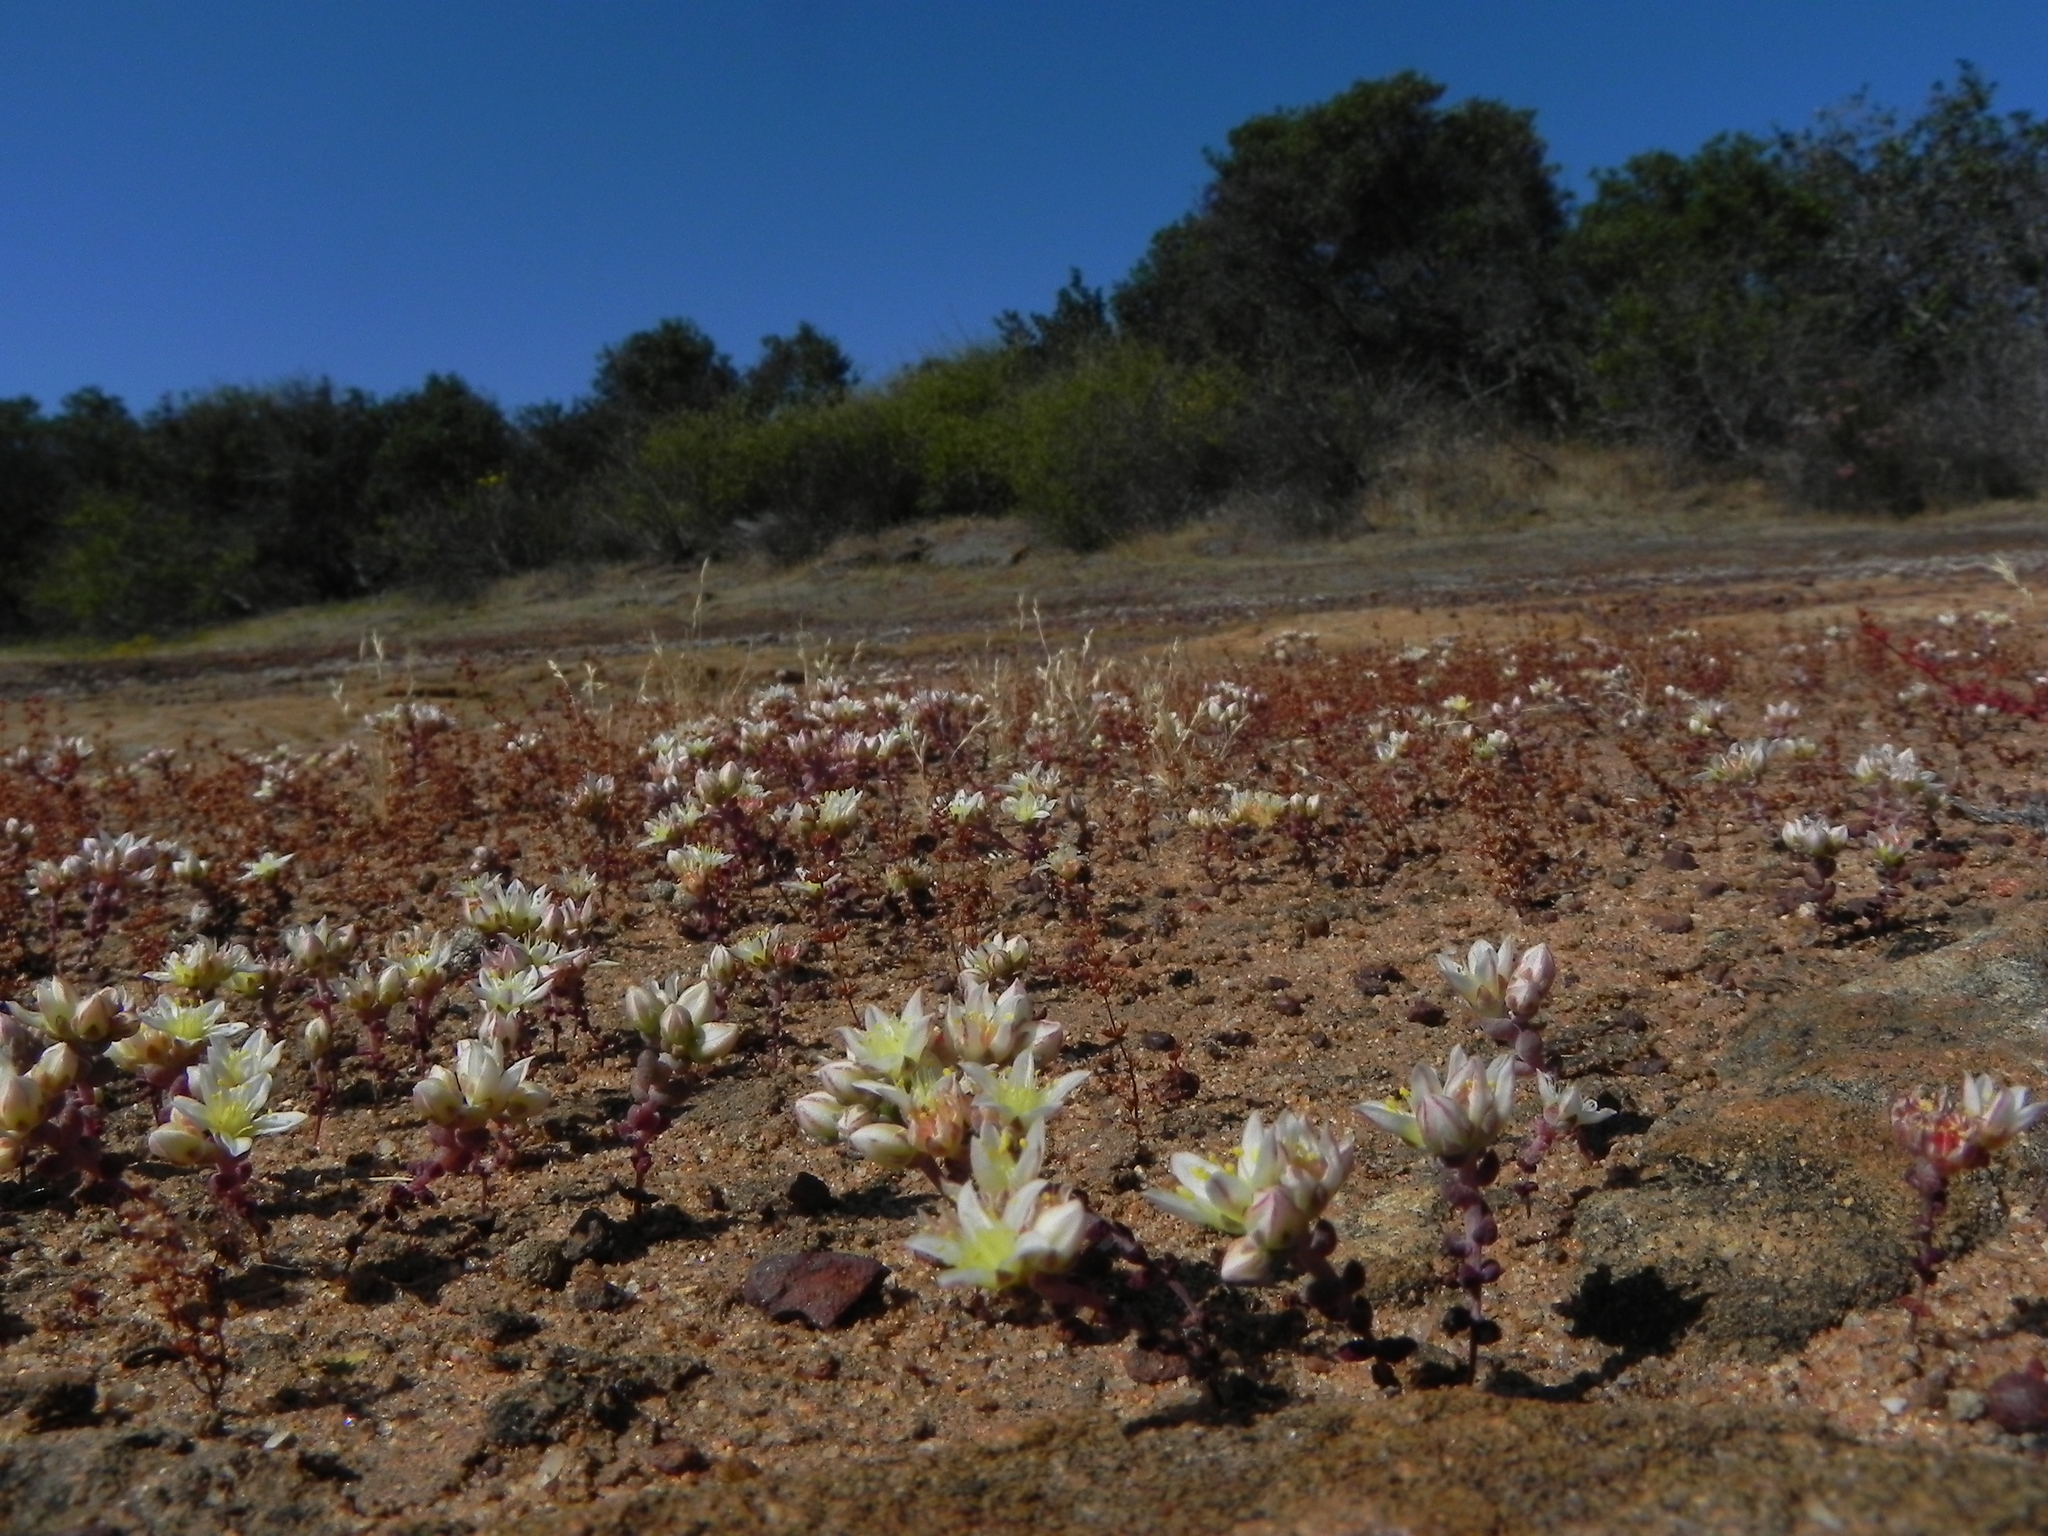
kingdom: Plantae
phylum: Tracheophyta
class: Magnoliopsida
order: Saxifragales
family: Crassulaceae
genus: Dudleya
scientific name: Dudleya blochmaniae
